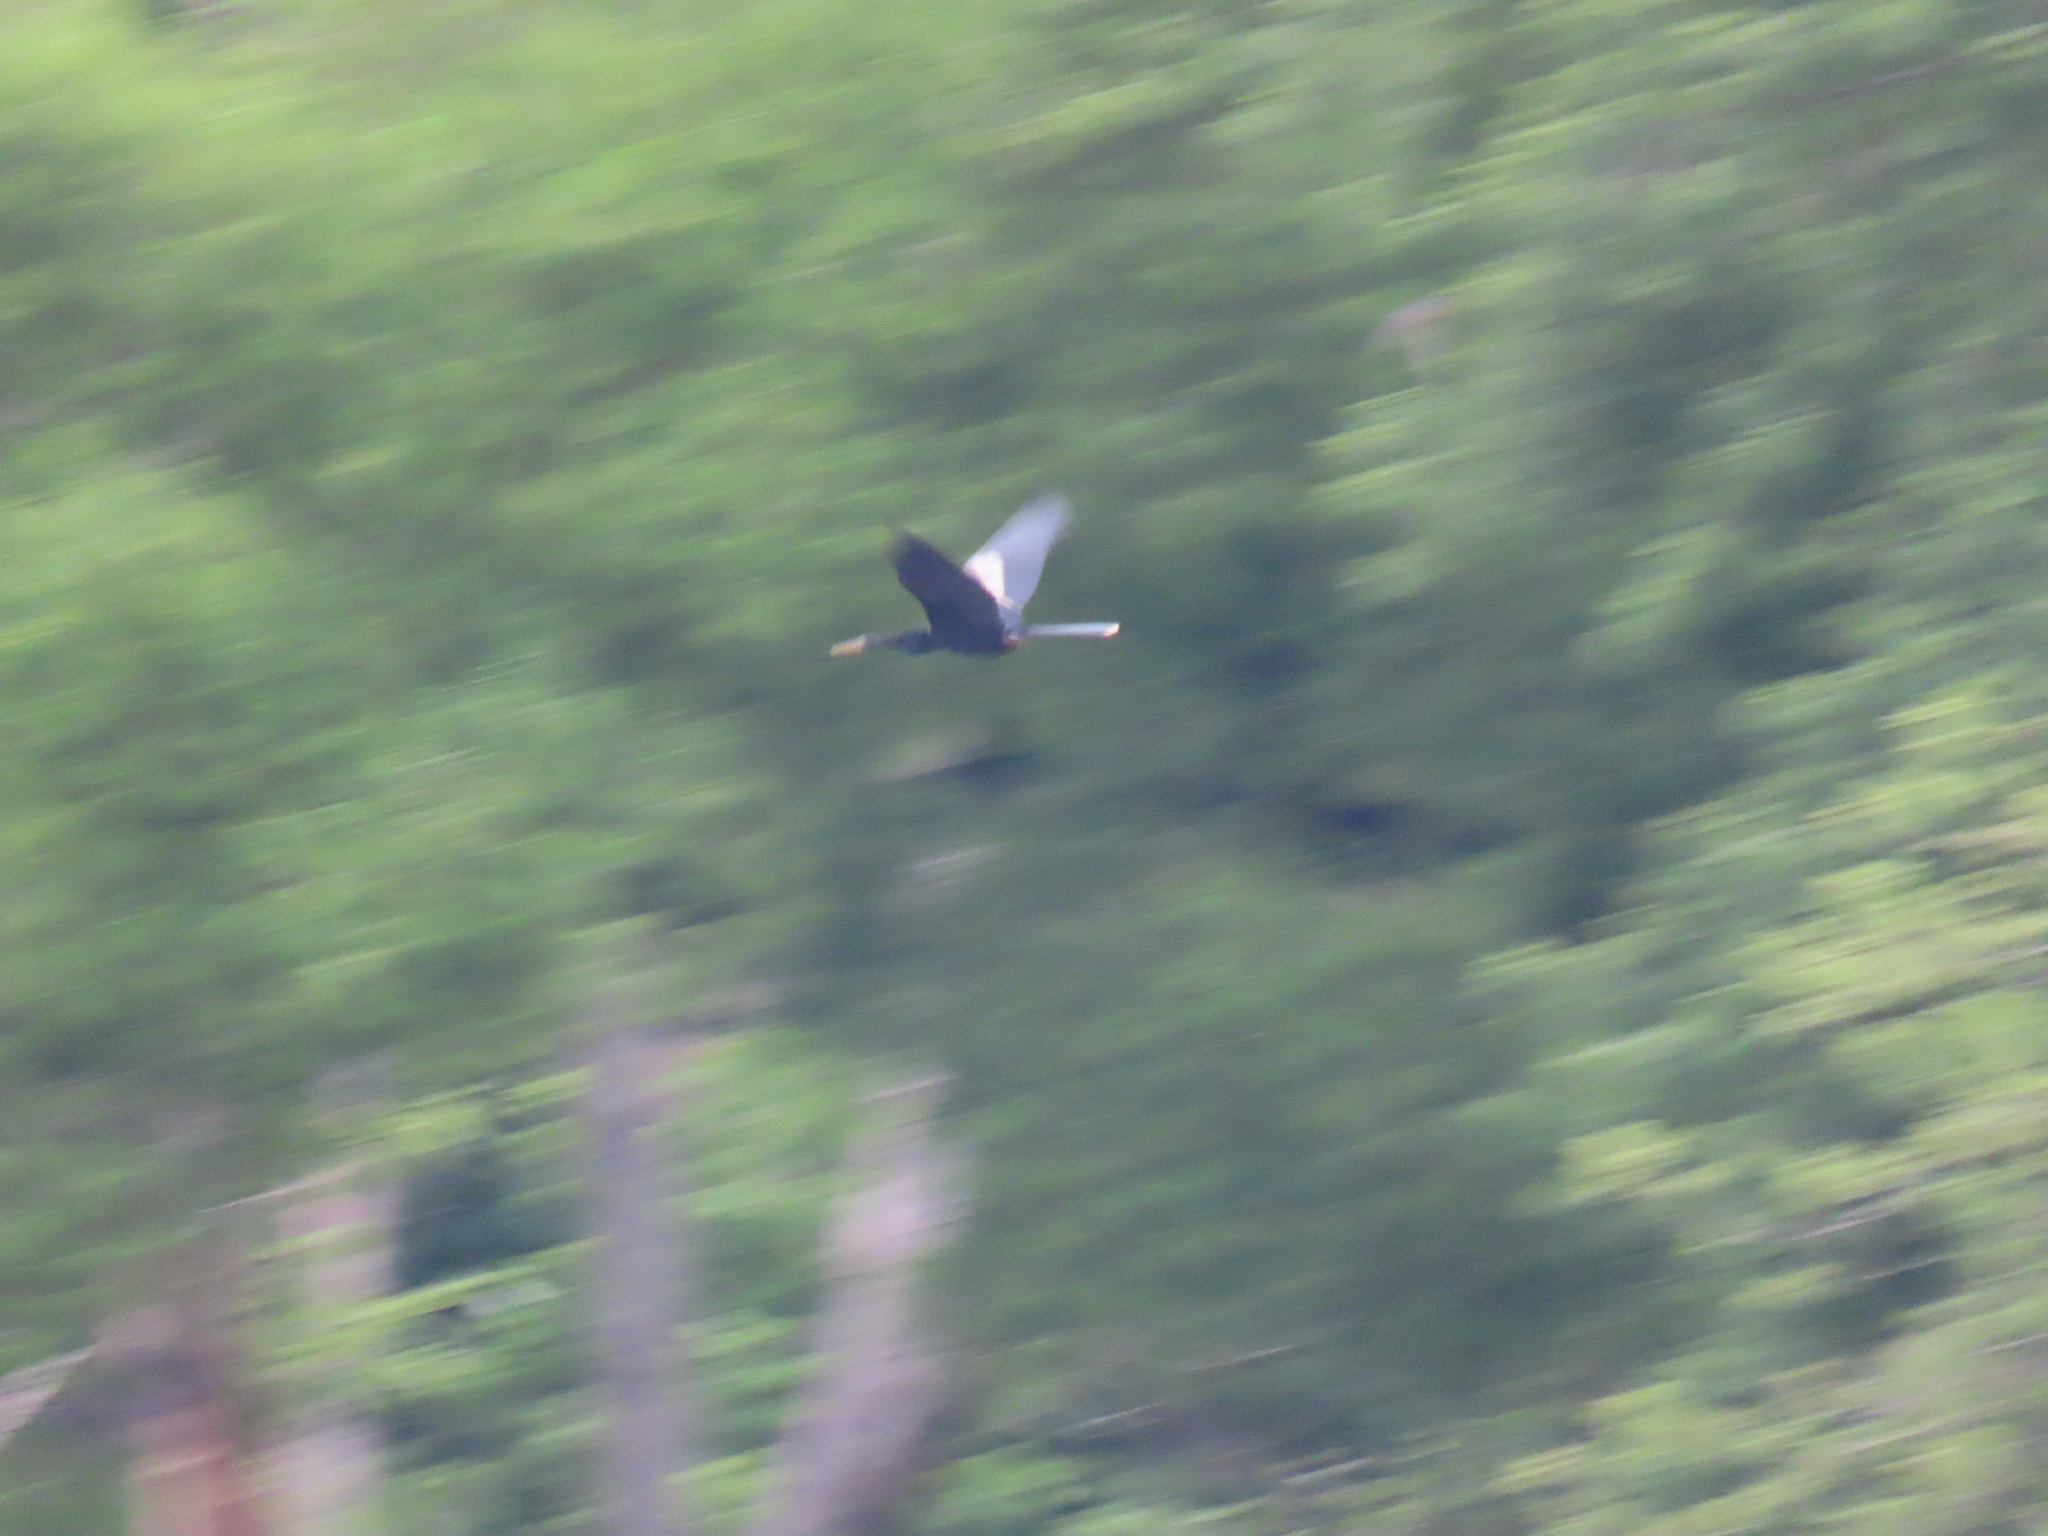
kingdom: Animalia
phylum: Chordata
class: Aves
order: Suliformes
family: Anhingidae
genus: Anhinga
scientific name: Anhinga anhinga
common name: Anhinga
